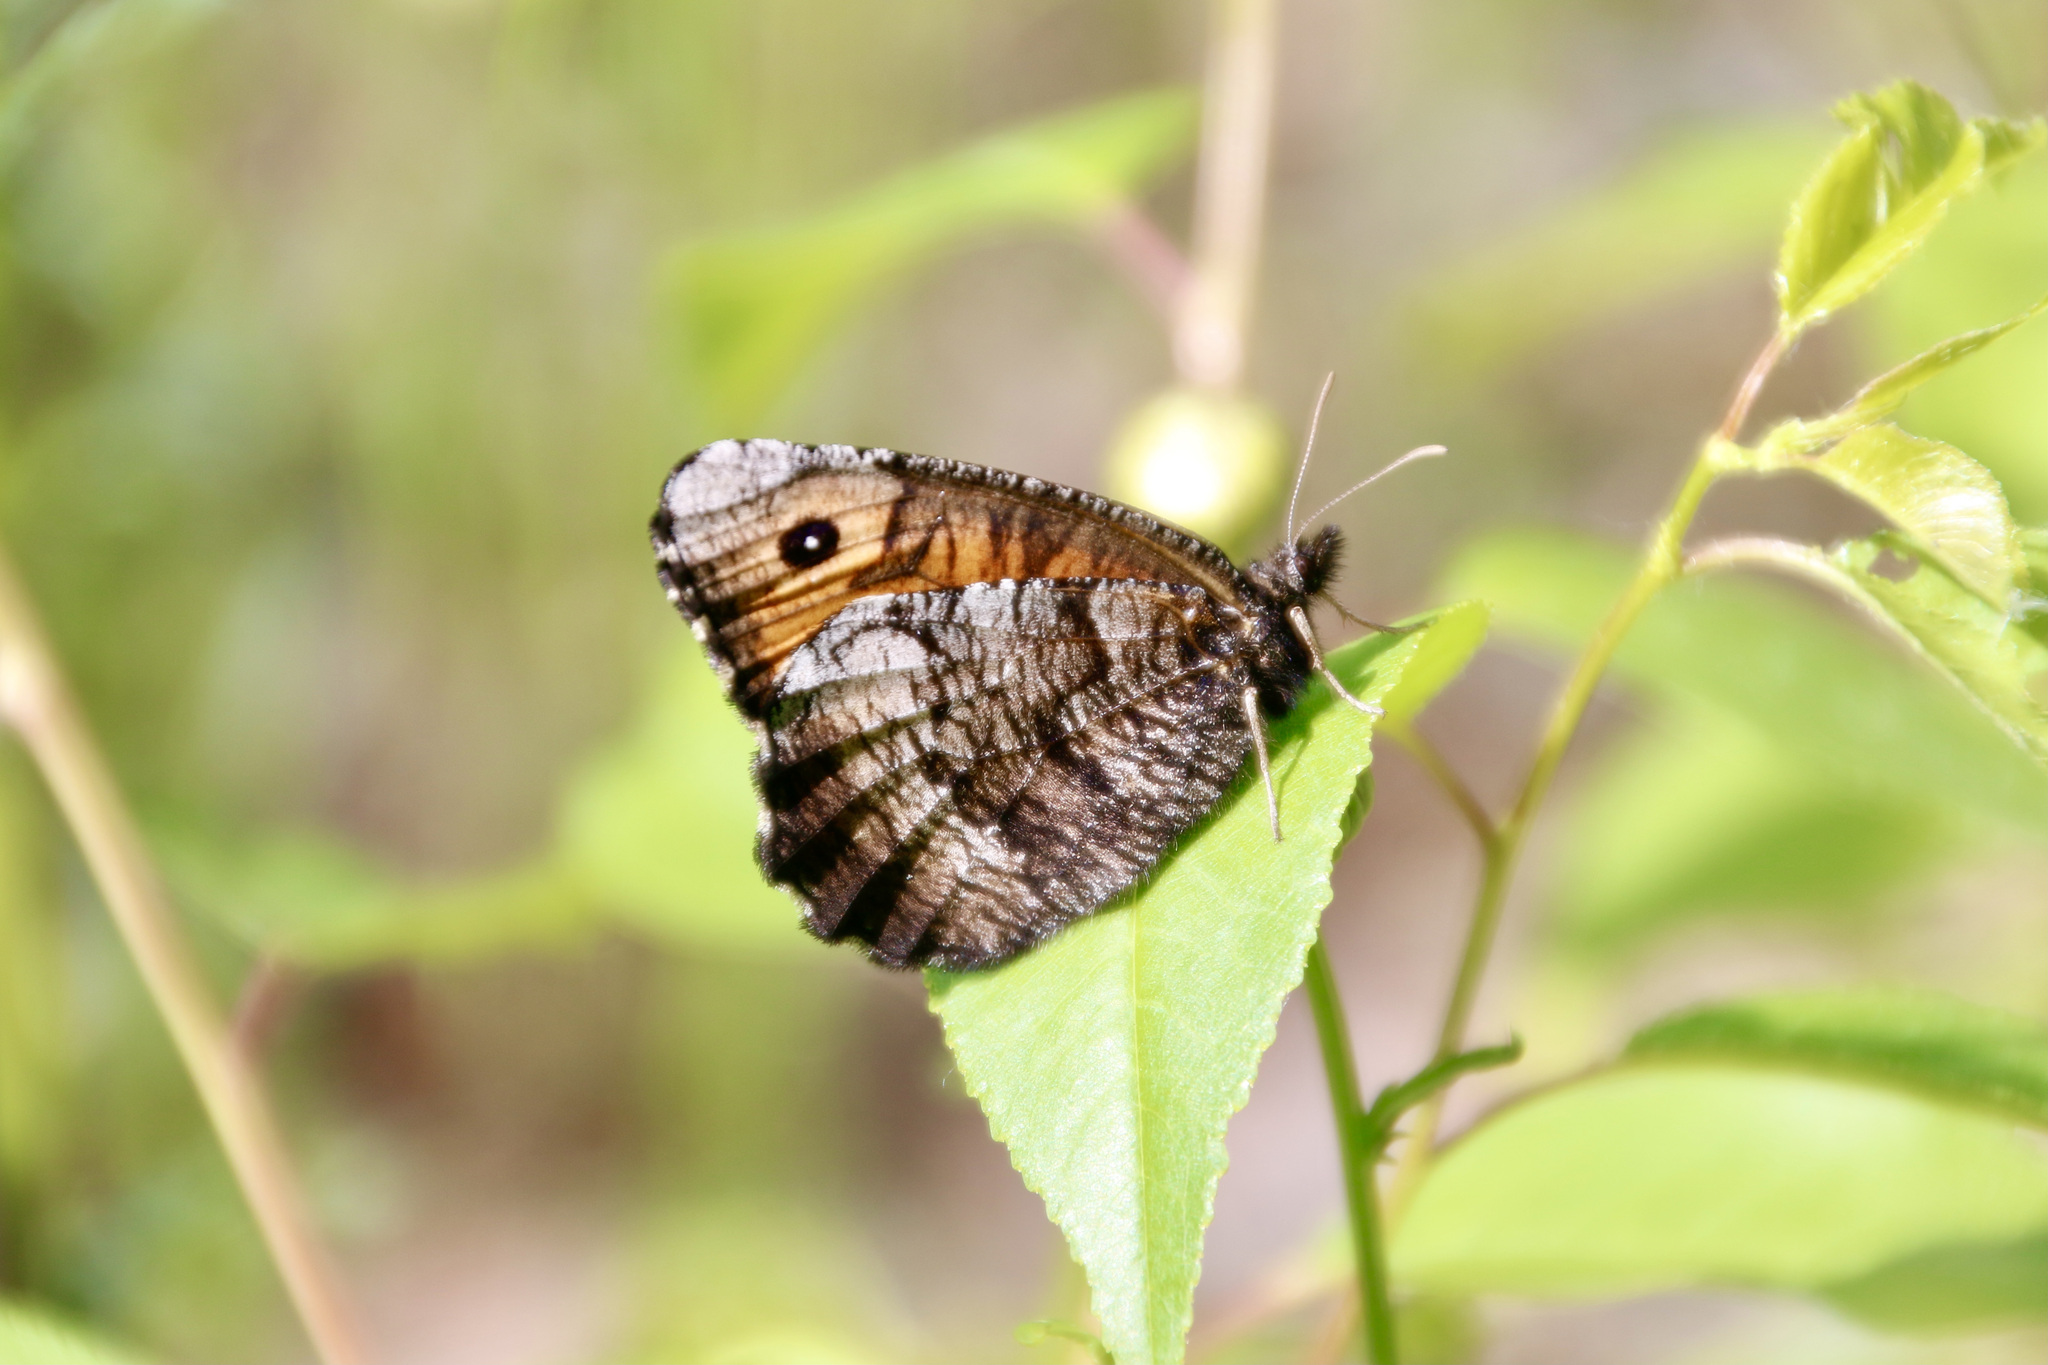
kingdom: Animalia
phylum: Arthropoda
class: Insecta
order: Lepidoptera
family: Nymphalidae
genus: Oeneis
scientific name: Oeneis macounii
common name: Macoun's arctic
